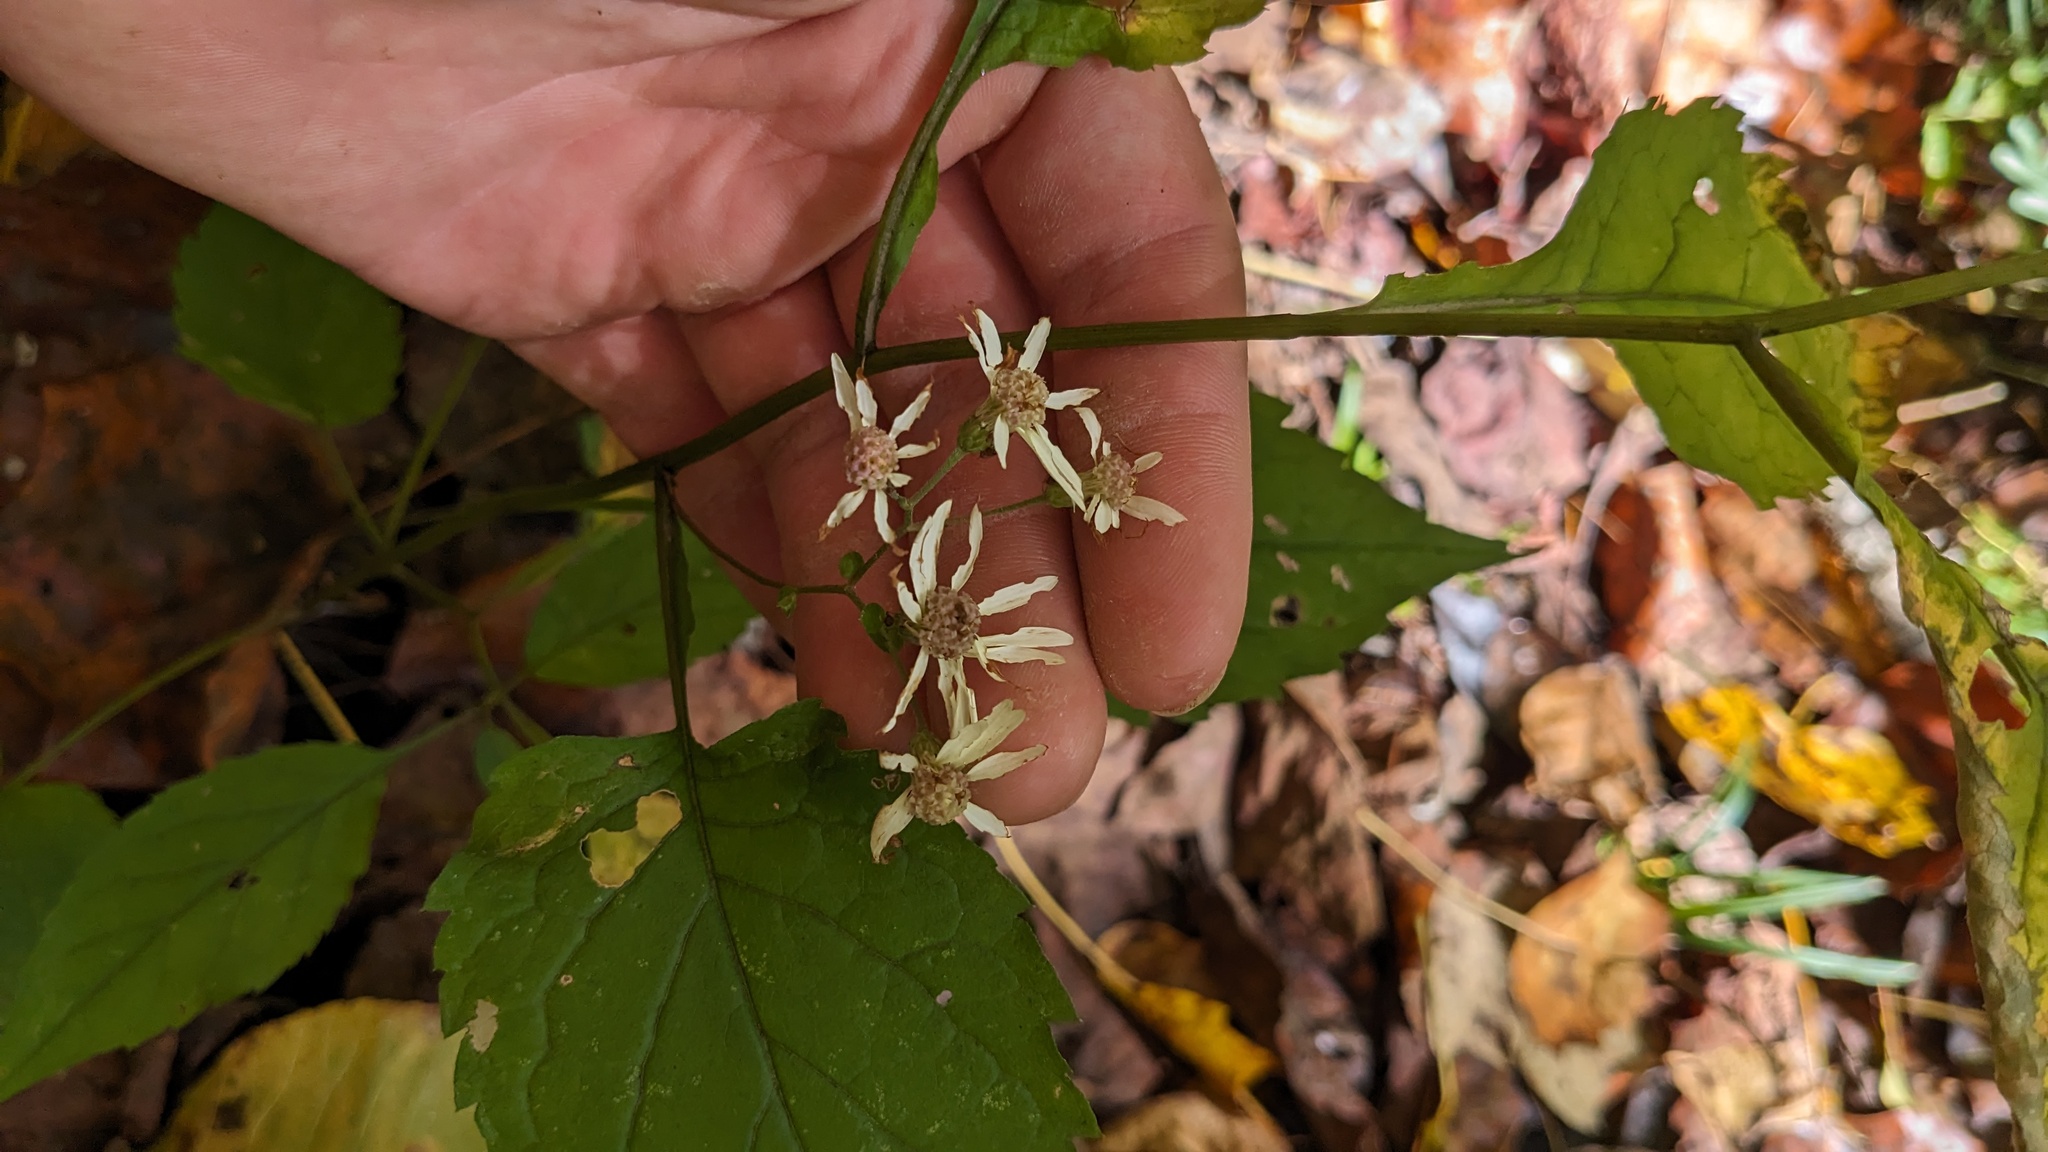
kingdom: Plantae
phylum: Tracheophyta
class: Magnoliopsida
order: Asterales
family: Asteraceae
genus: Eurybia
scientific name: Eurybia divaricata
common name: White wood aster
